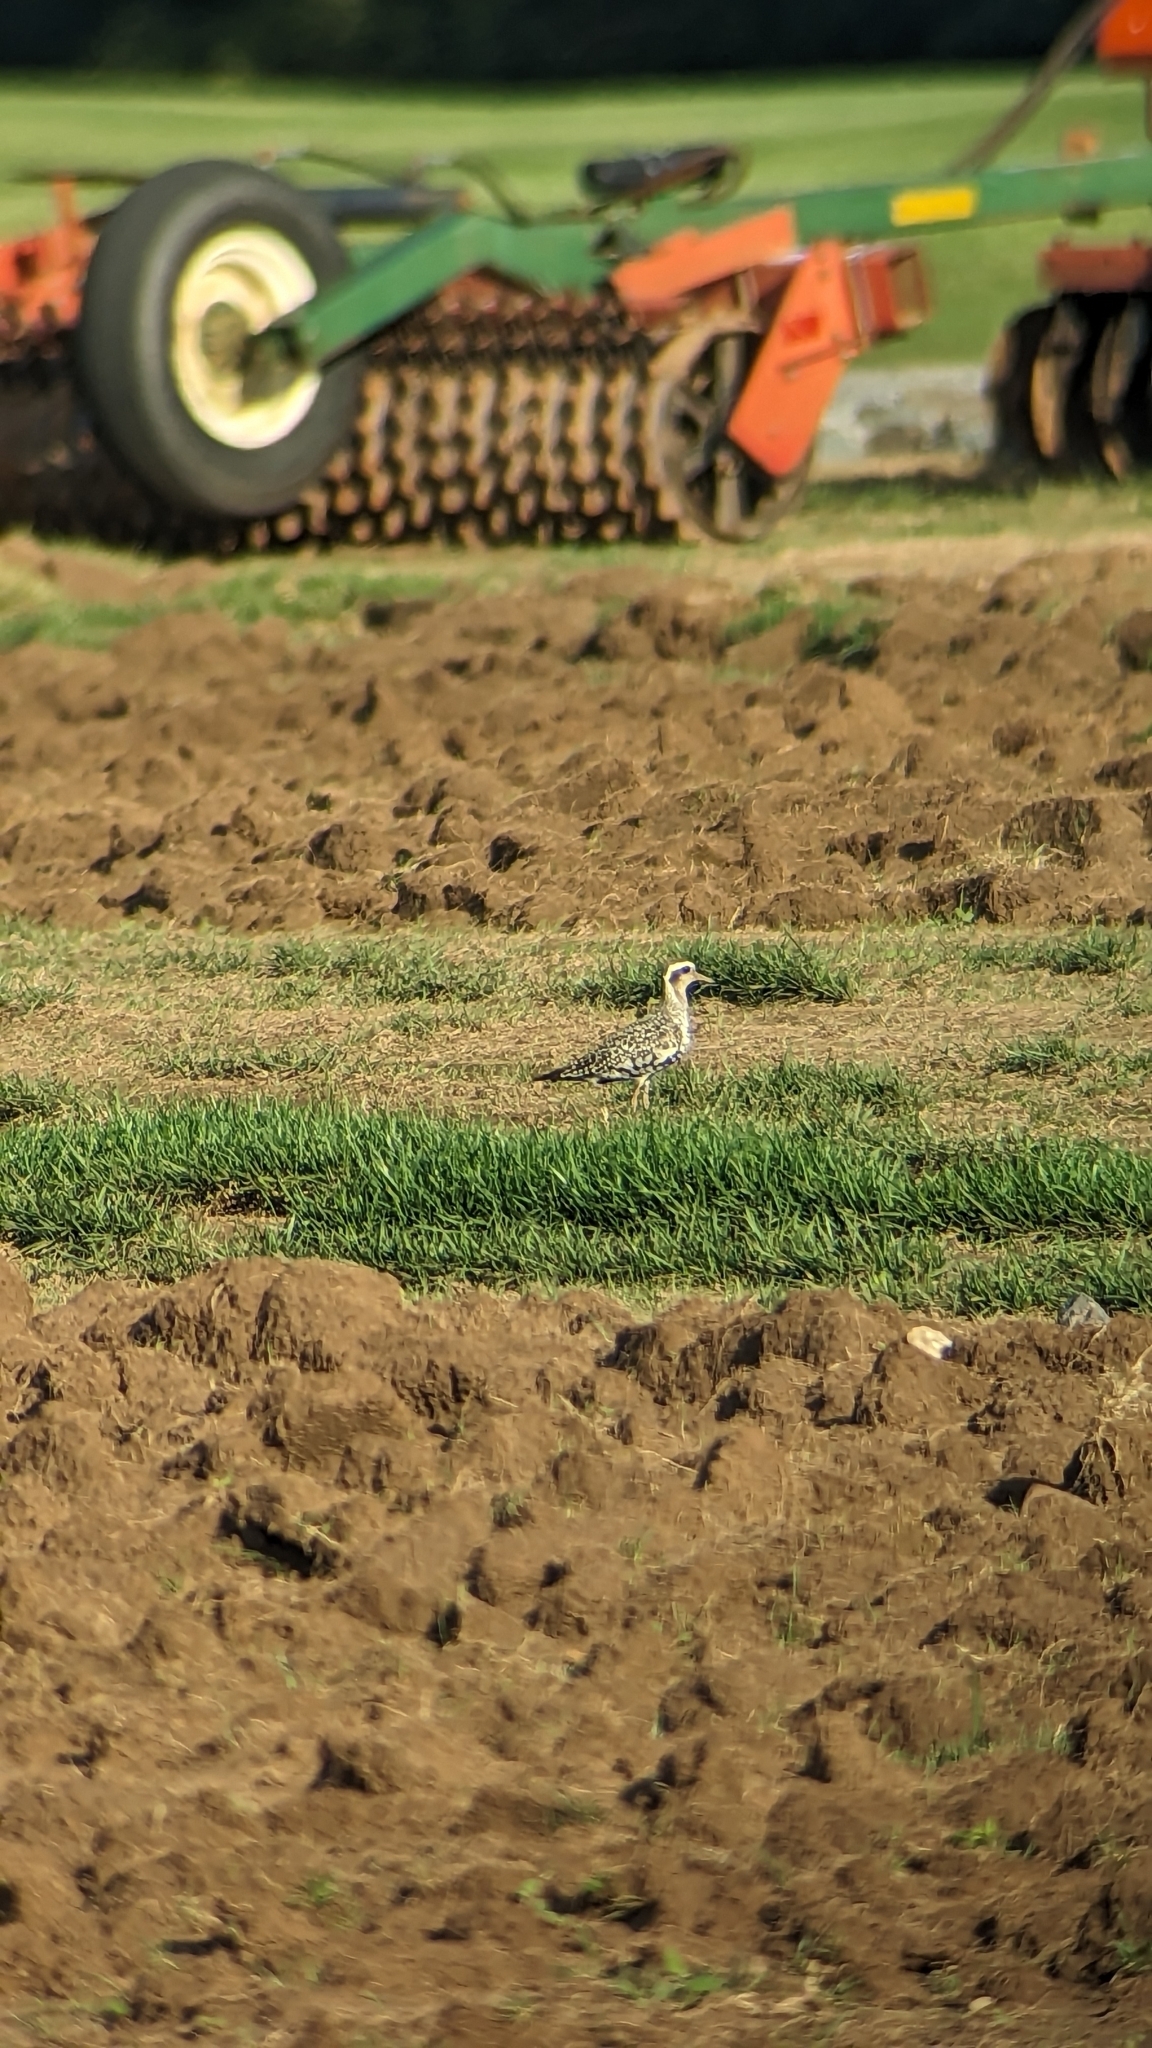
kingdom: Animalia
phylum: Chordata
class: Aves
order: Charadriiformes
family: Charadriidae
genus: Pluvialis
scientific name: Pluvialis dominica
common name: American golden plover
